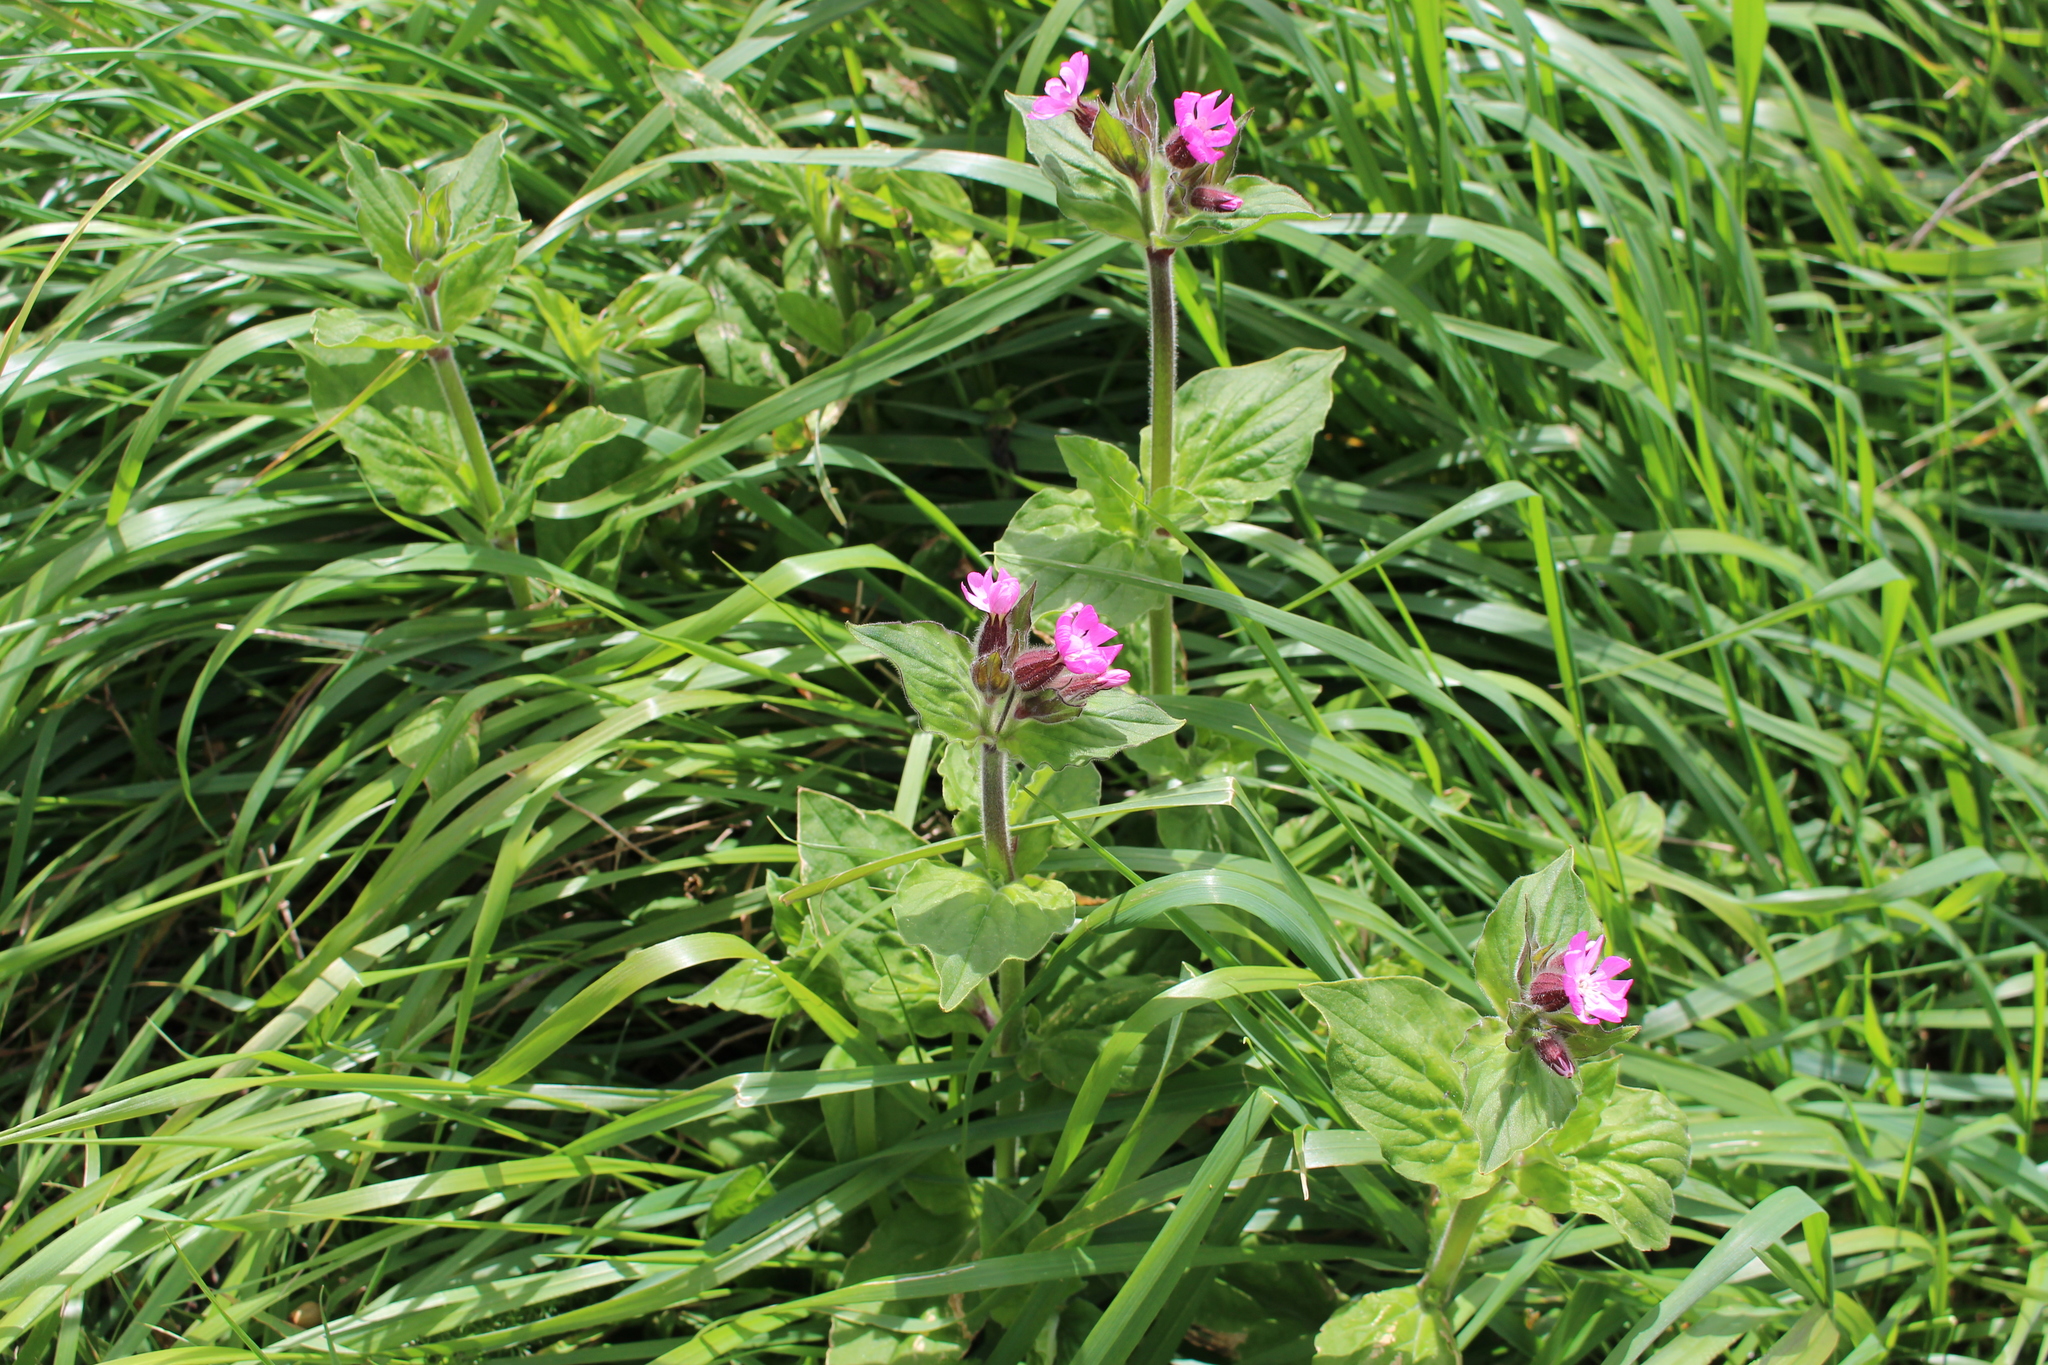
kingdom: Plantae
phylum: Tracheophyta
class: Magnoliopsida
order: Caryophyllales
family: Caryophyllaceae
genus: Silene
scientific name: Silene dioica
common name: Red campion
